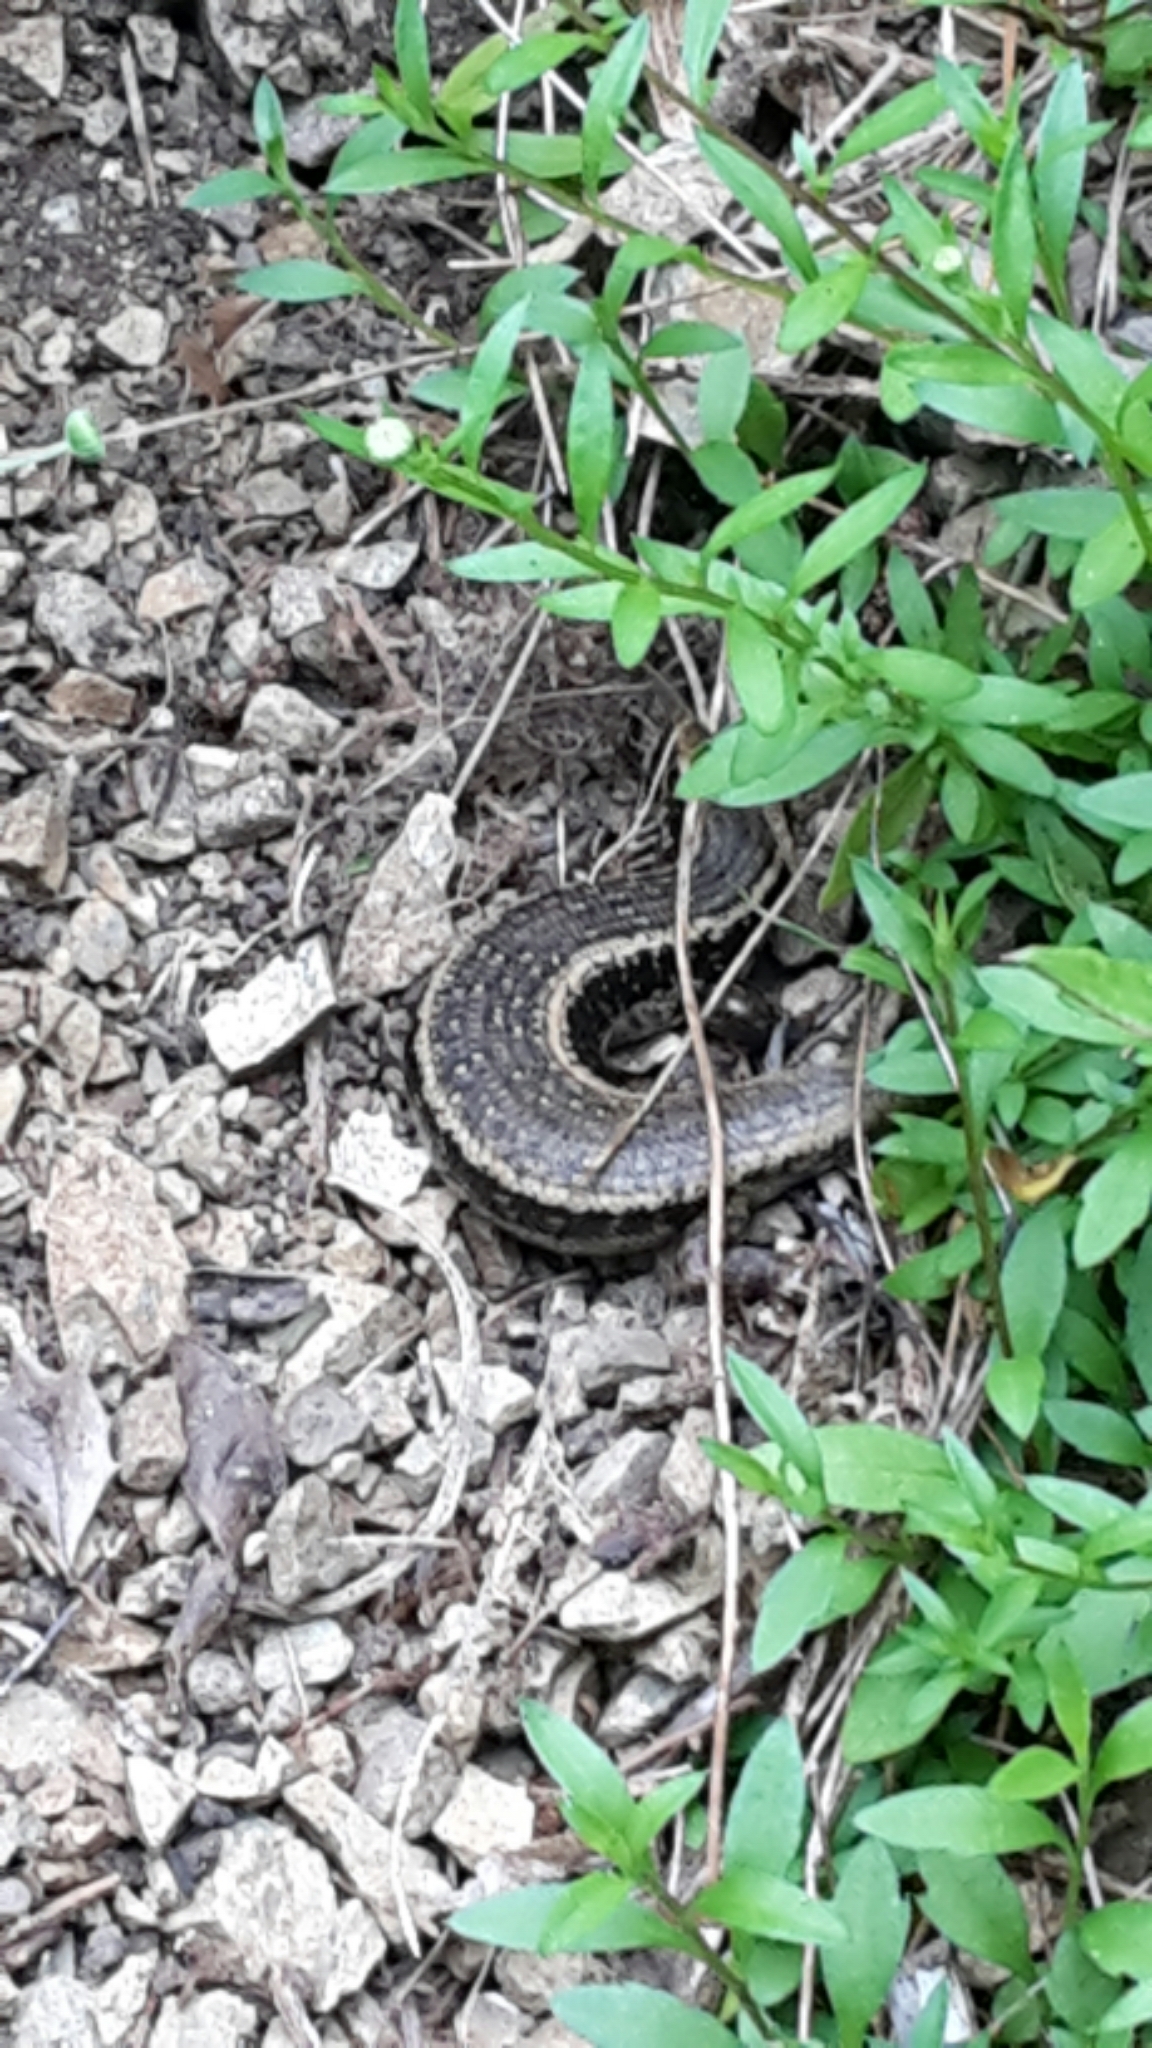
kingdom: Animalia
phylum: Chordata
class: Squamata
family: Scincidae
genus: Oligosoma
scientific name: Oligosoma kokowai
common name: Northern spotted skink
